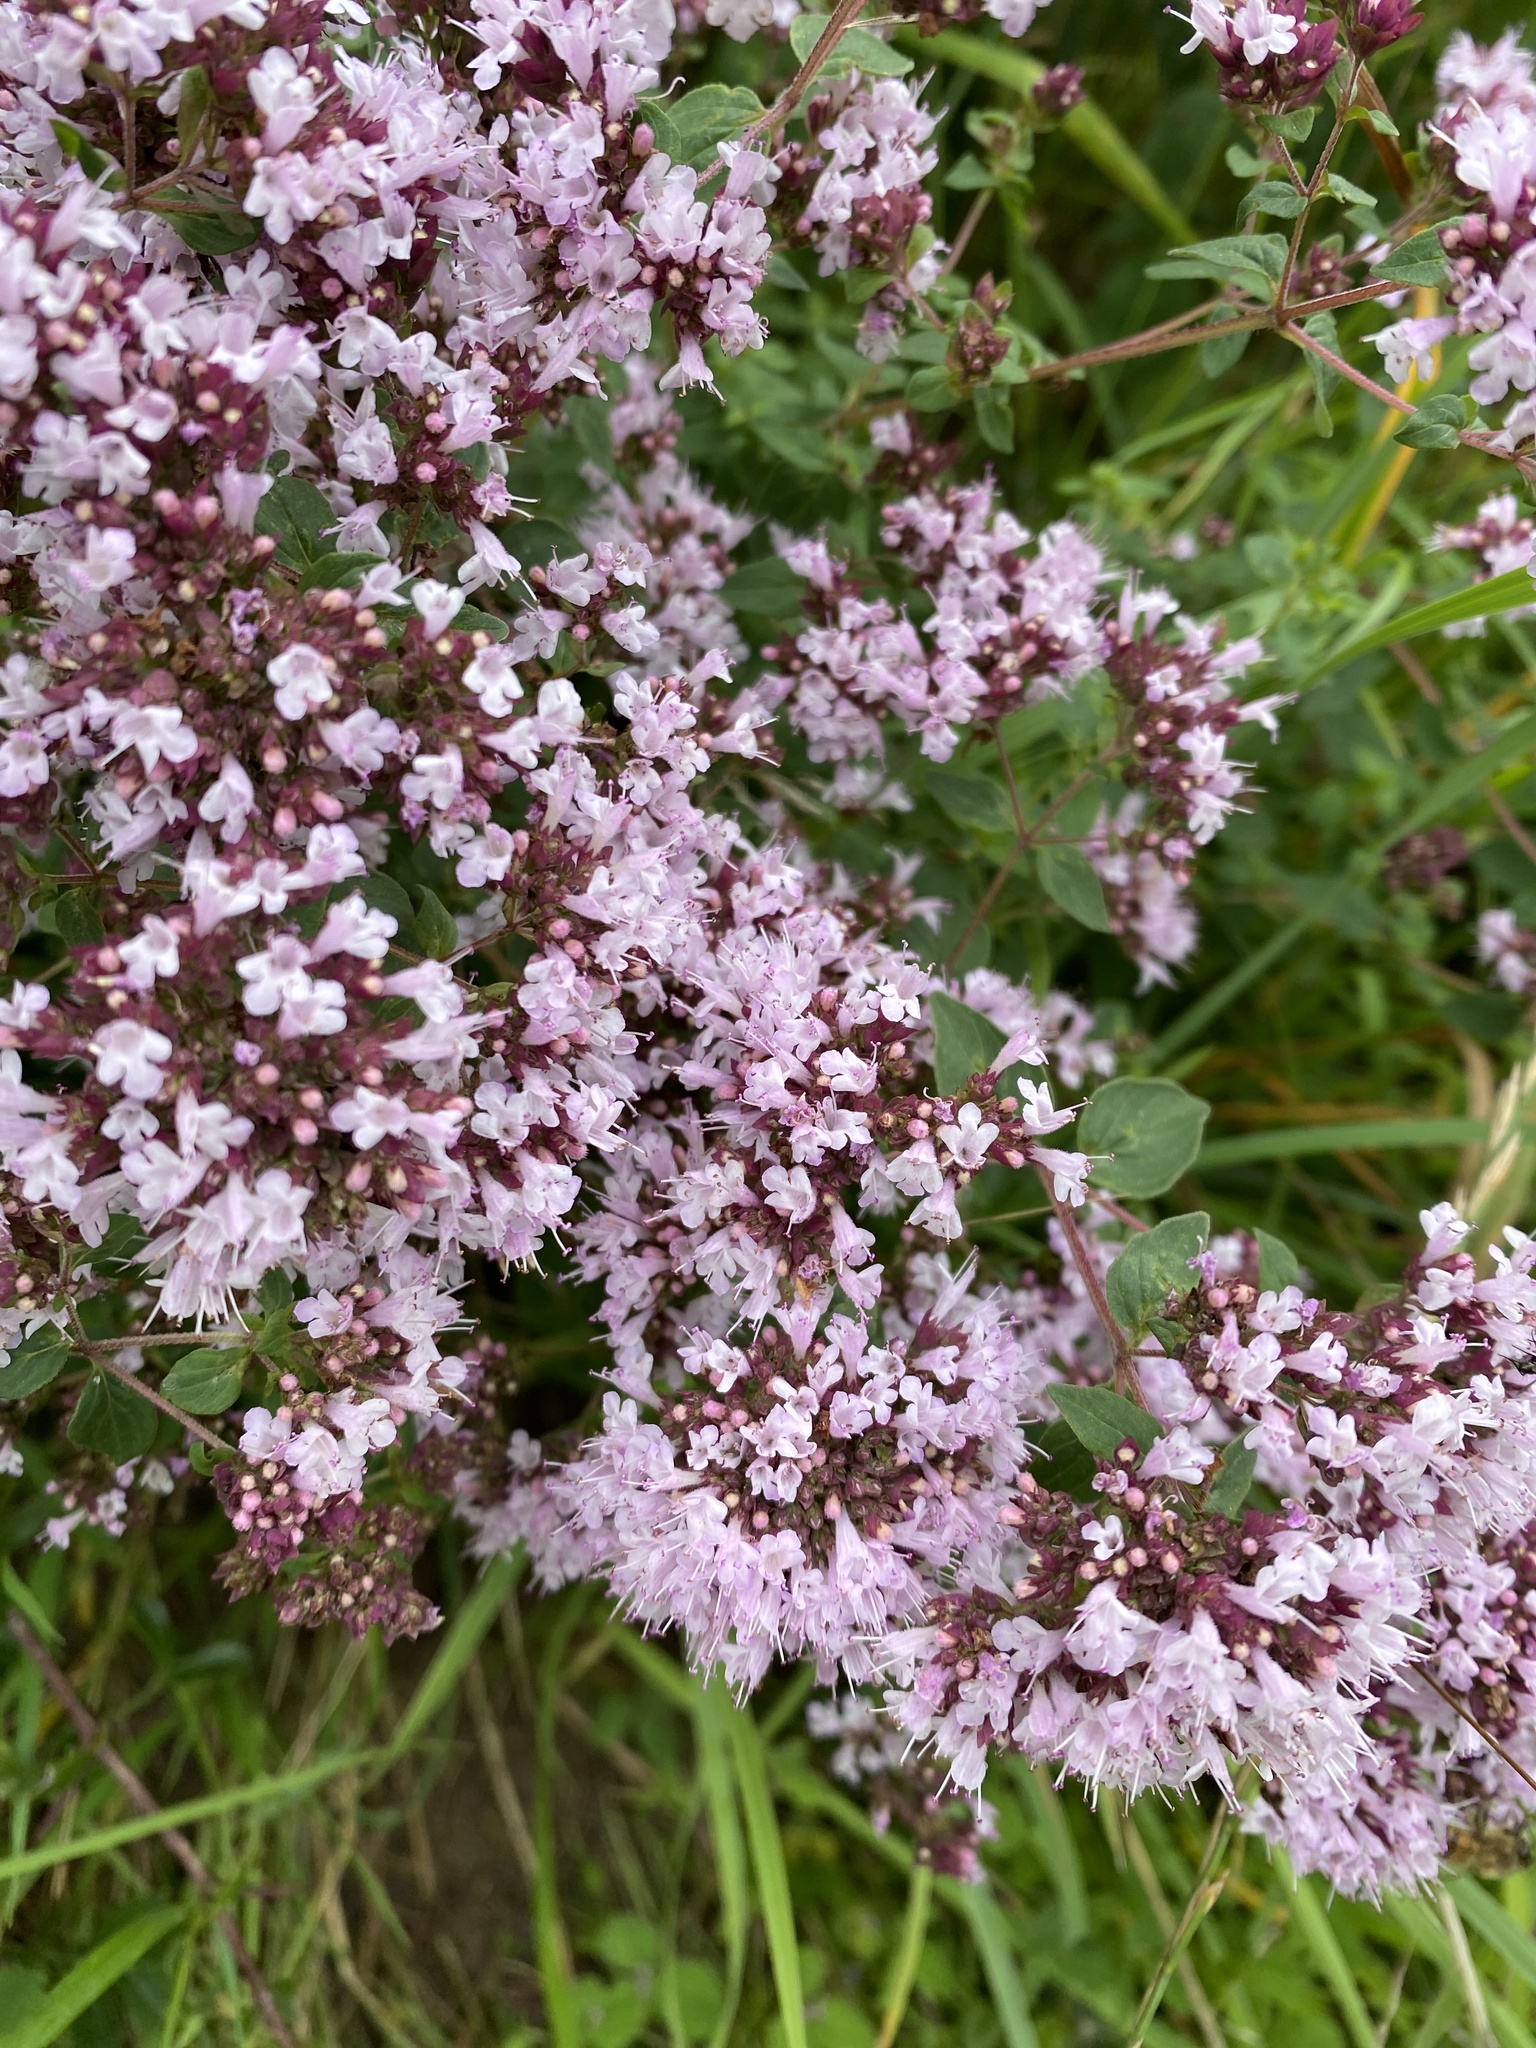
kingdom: Plantae
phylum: Tracheophyta
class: Magnoliopsida
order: Lamiales
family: Lamiaceae
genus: Origanum
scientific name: Origanum vulgare
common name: Wild marjoram
